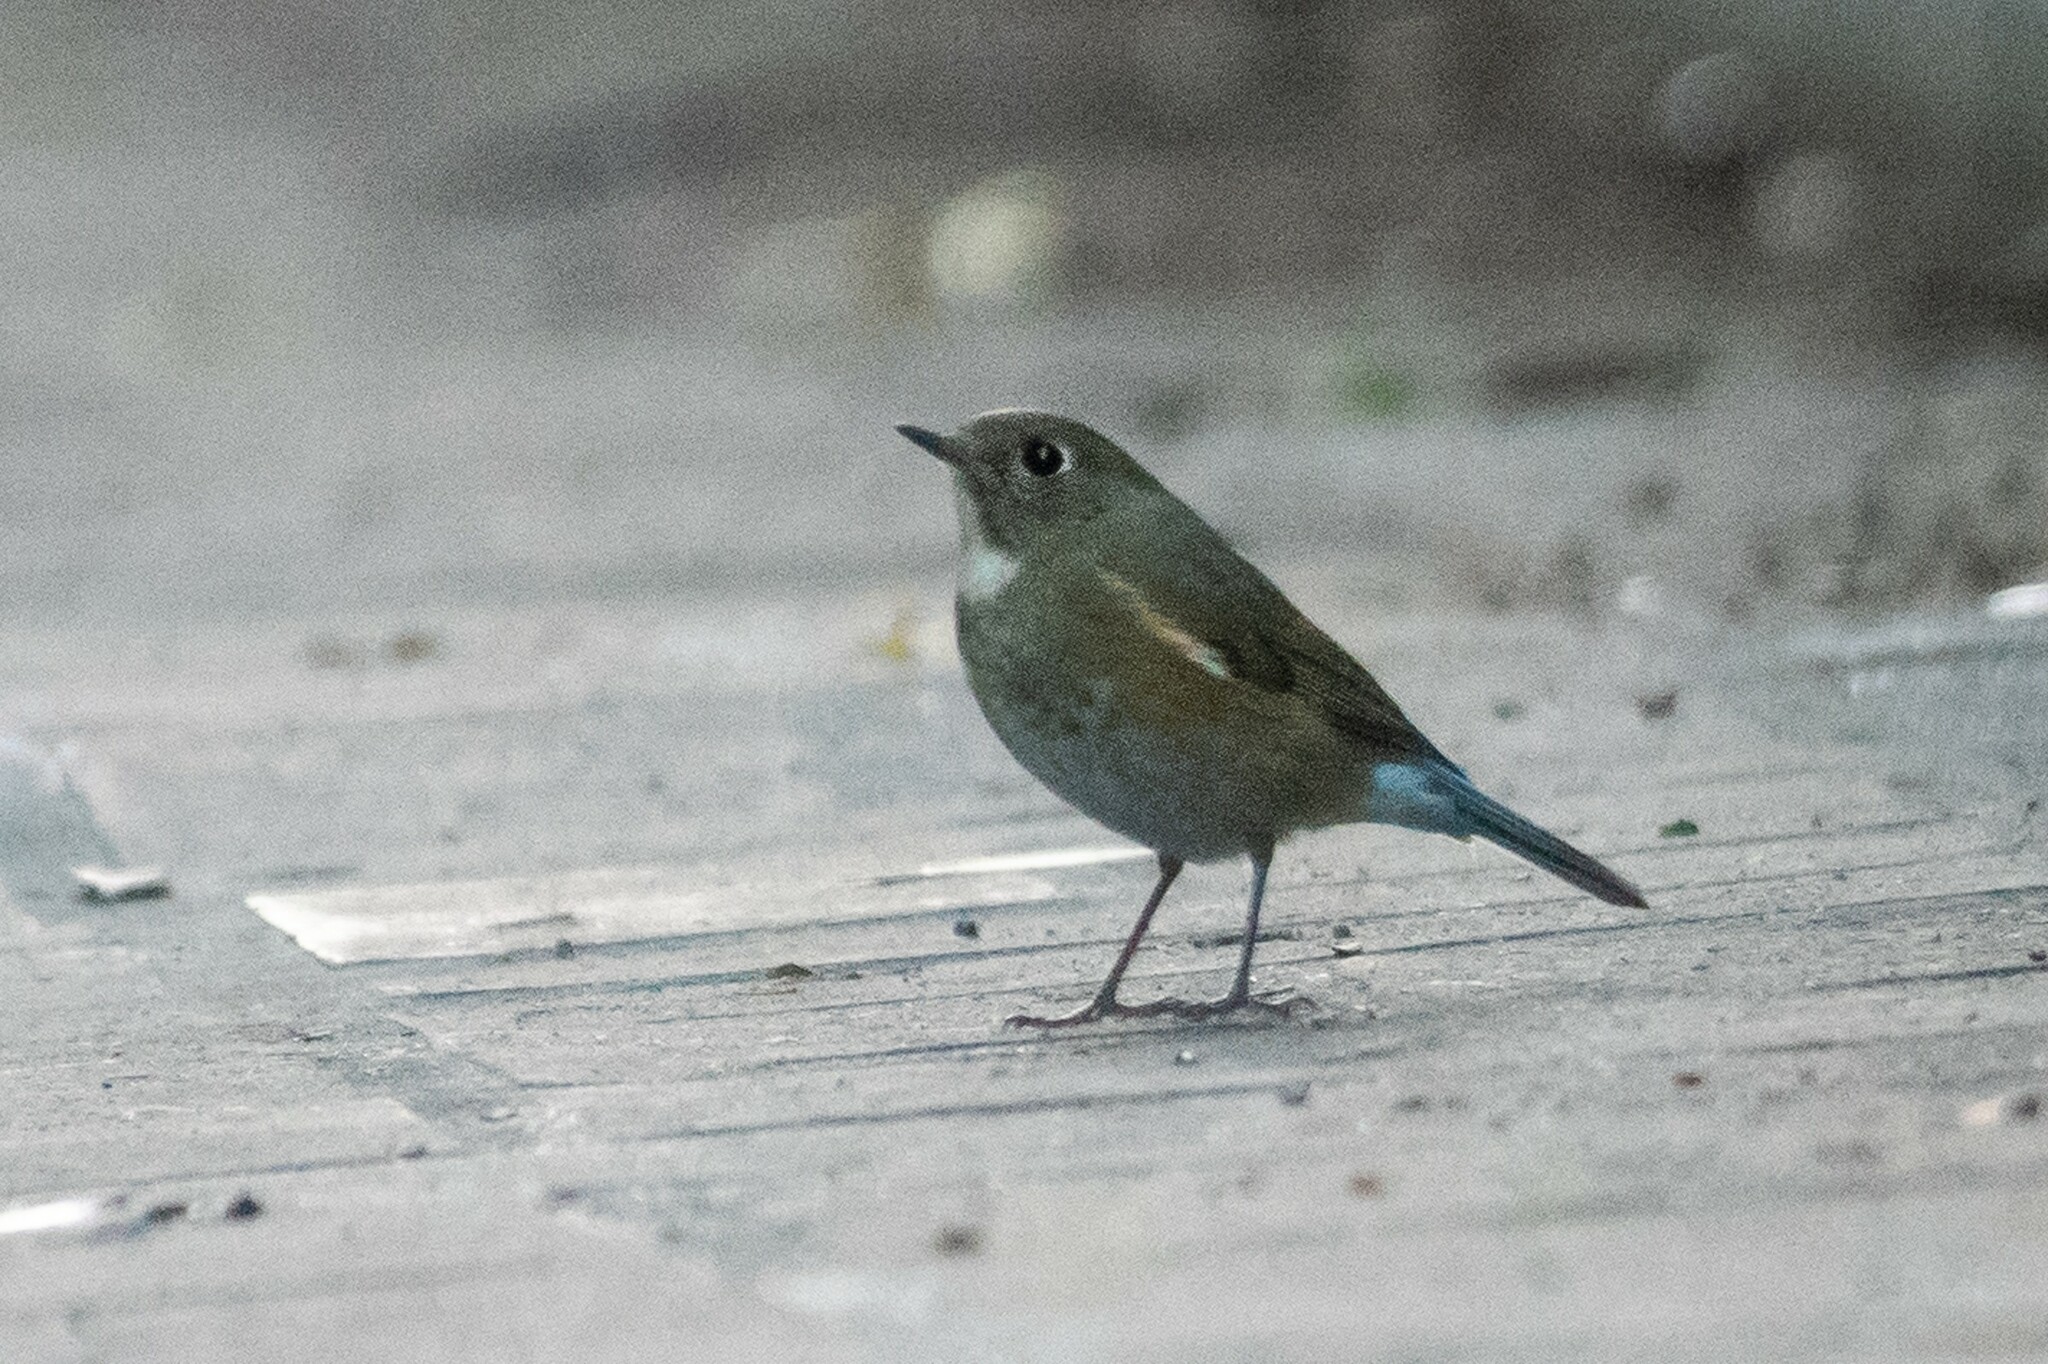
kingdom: Animalia
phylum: Chordata
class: Aves
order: Passeriformes
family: Muscicapidae
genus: Tarsiger
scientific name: Tarsiger cyanurus
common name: Red-flanked bluetail
